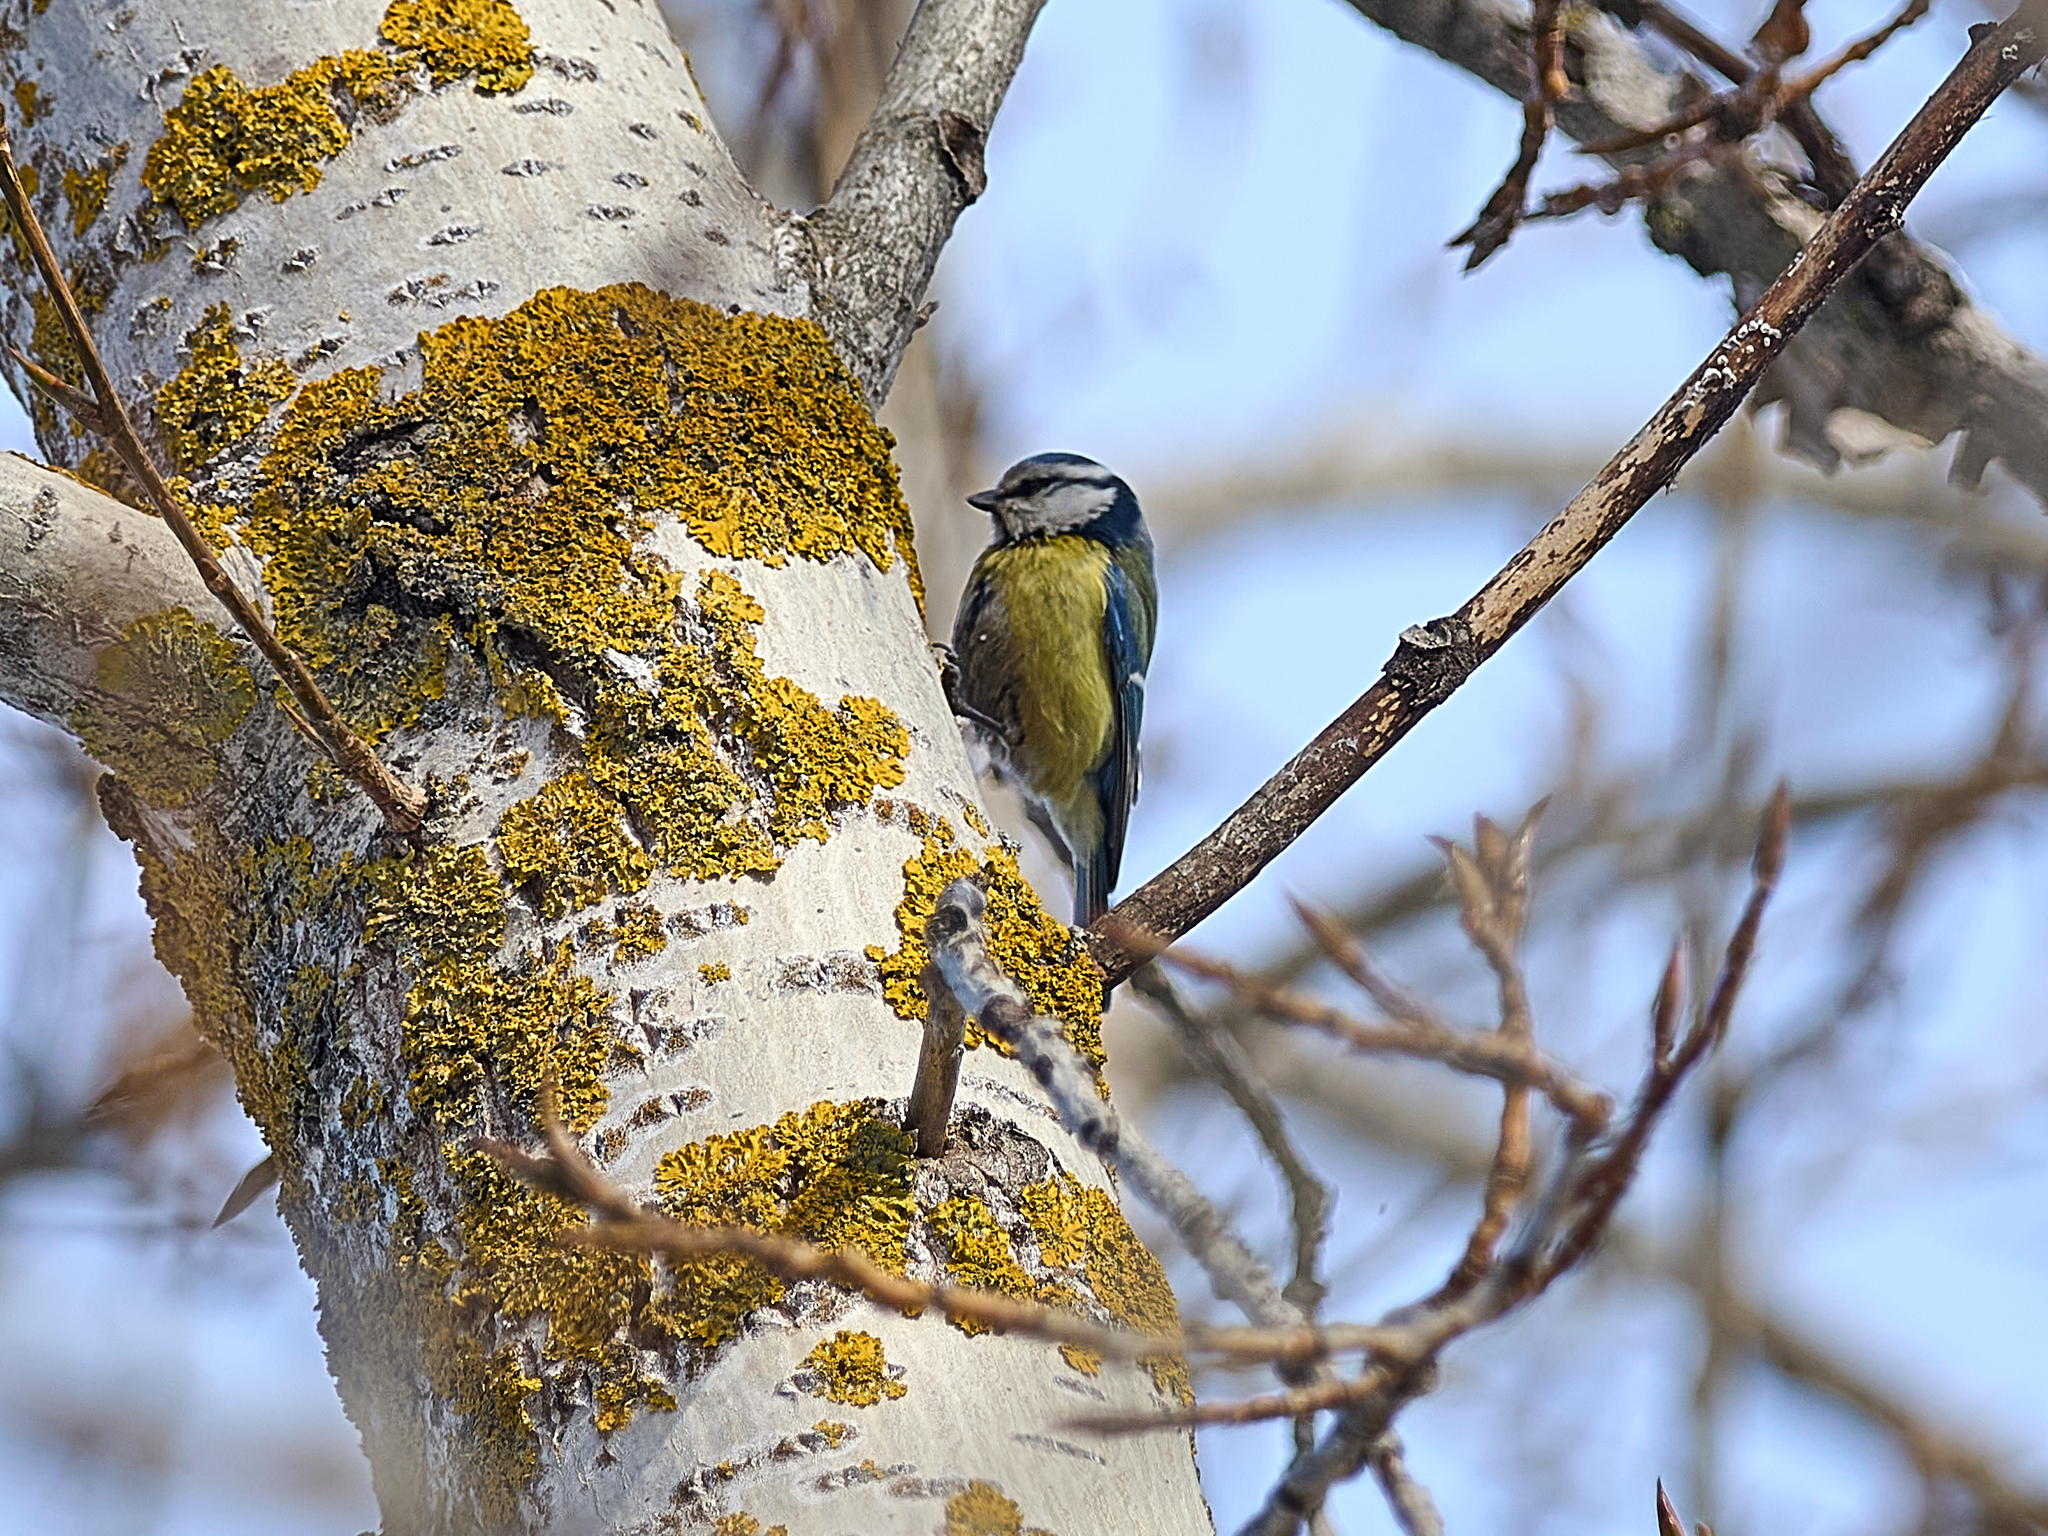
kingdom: Animalia
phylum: Chordata
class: Aves
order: Passeriformes
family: Paridae
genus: Cyanistes
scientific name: Cyanistes caeruleus
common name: Eurasian blue tit
